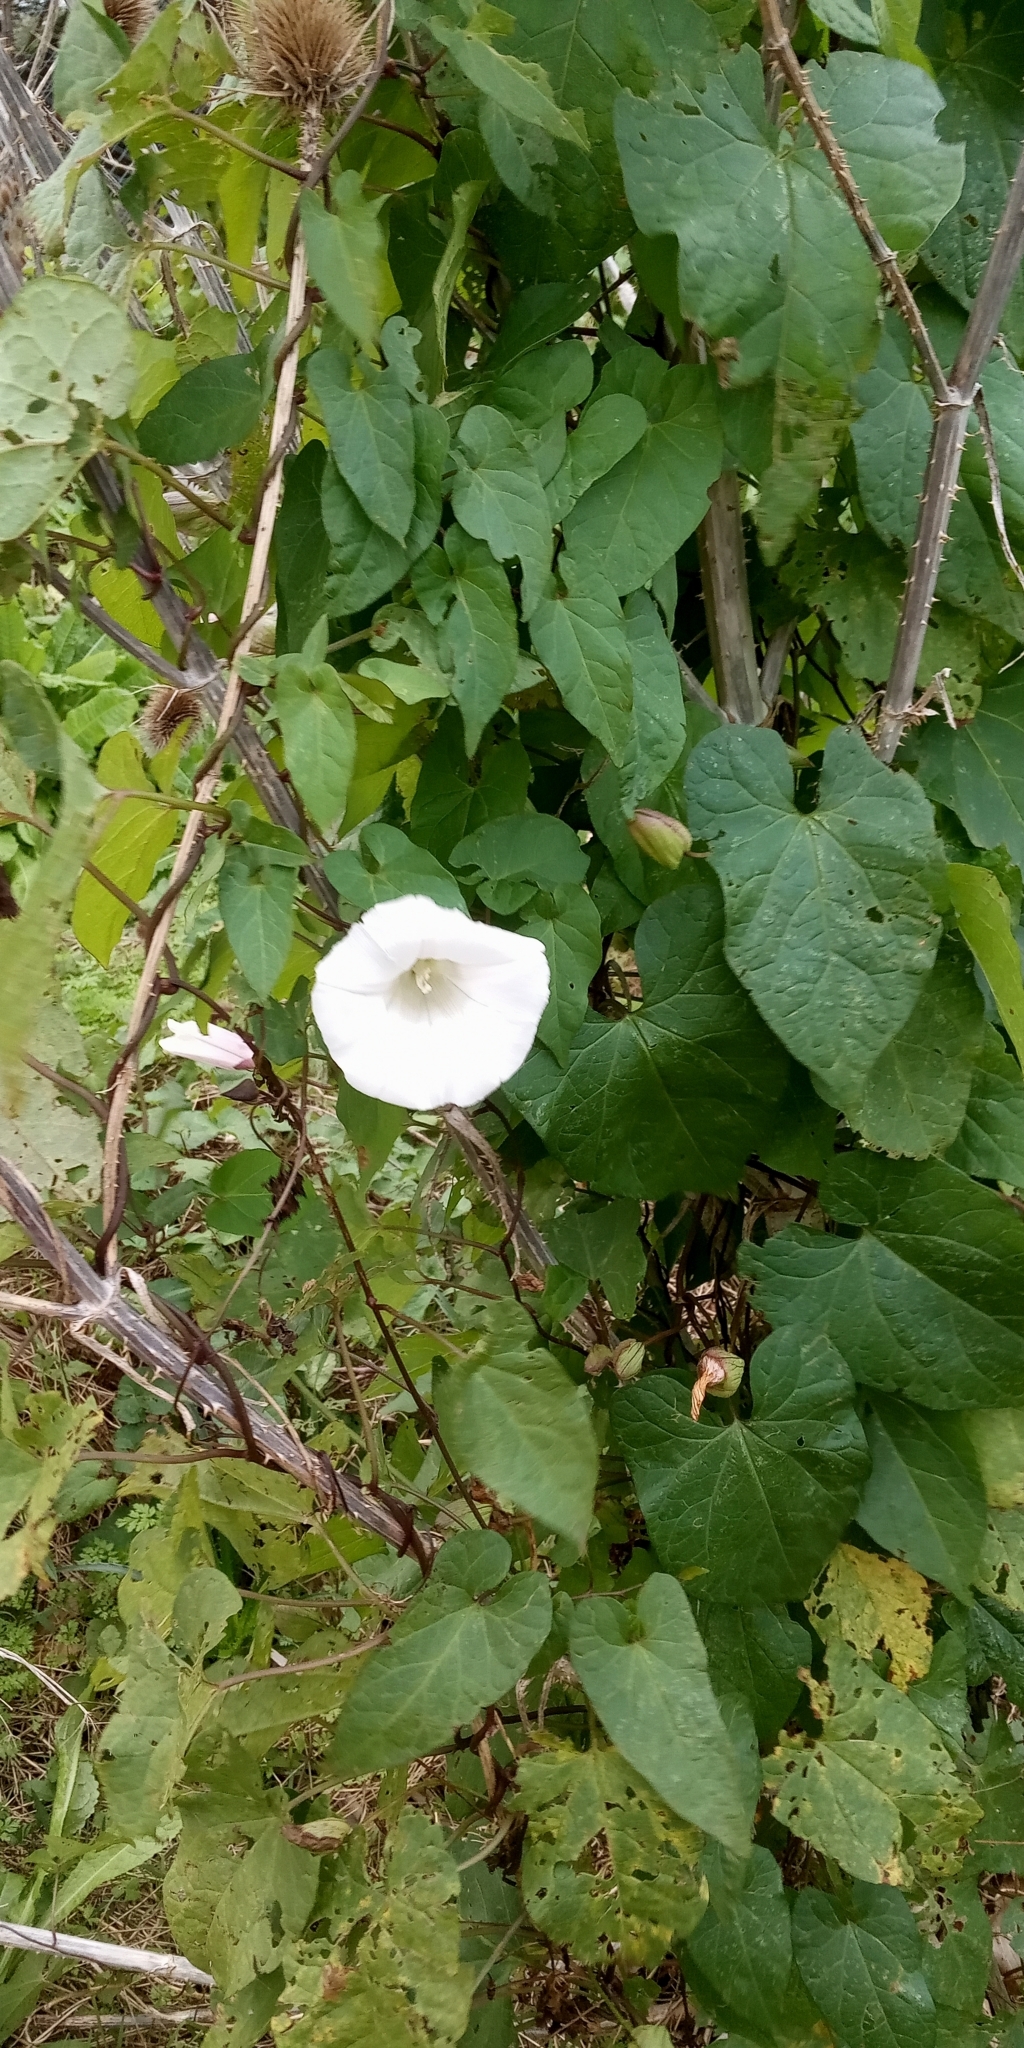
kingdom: Plantae
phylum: Tracheophyta
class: Magnoliopsida
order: Solanales
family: Convolvulaceae
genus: Calystegia
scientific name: Calystegia sepium
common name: Hedge bindweed
